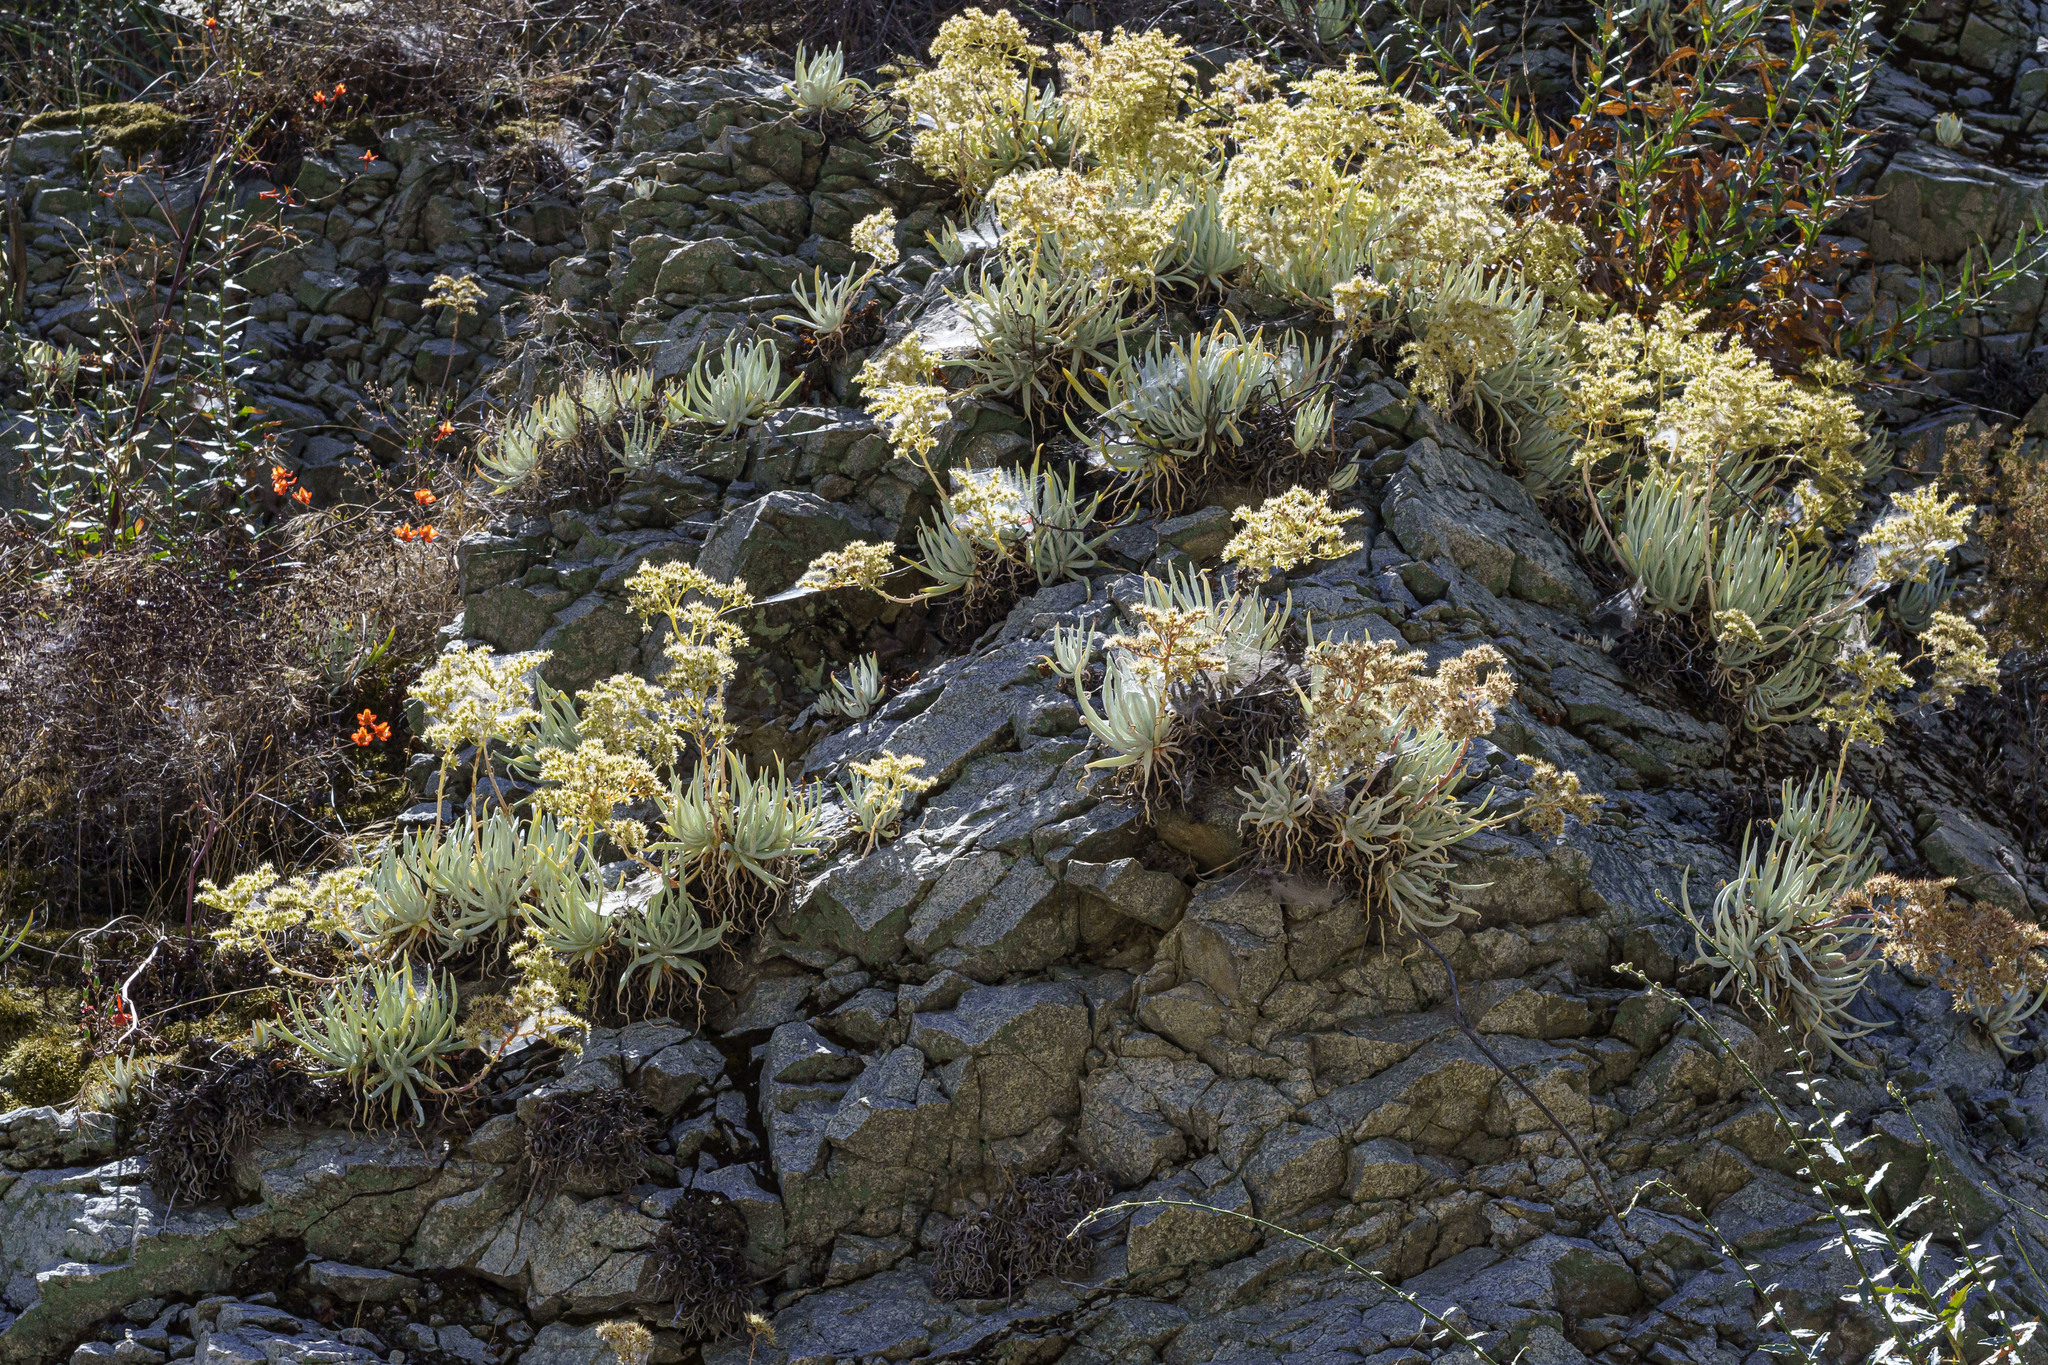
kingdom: Plantae
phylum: Tracheophyta
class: Magnoliopsida
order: Saxifragales
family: Crassulaceae
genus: Dudleya
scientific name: Dudleya densiflora
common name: San gabriel mountains dudleya
